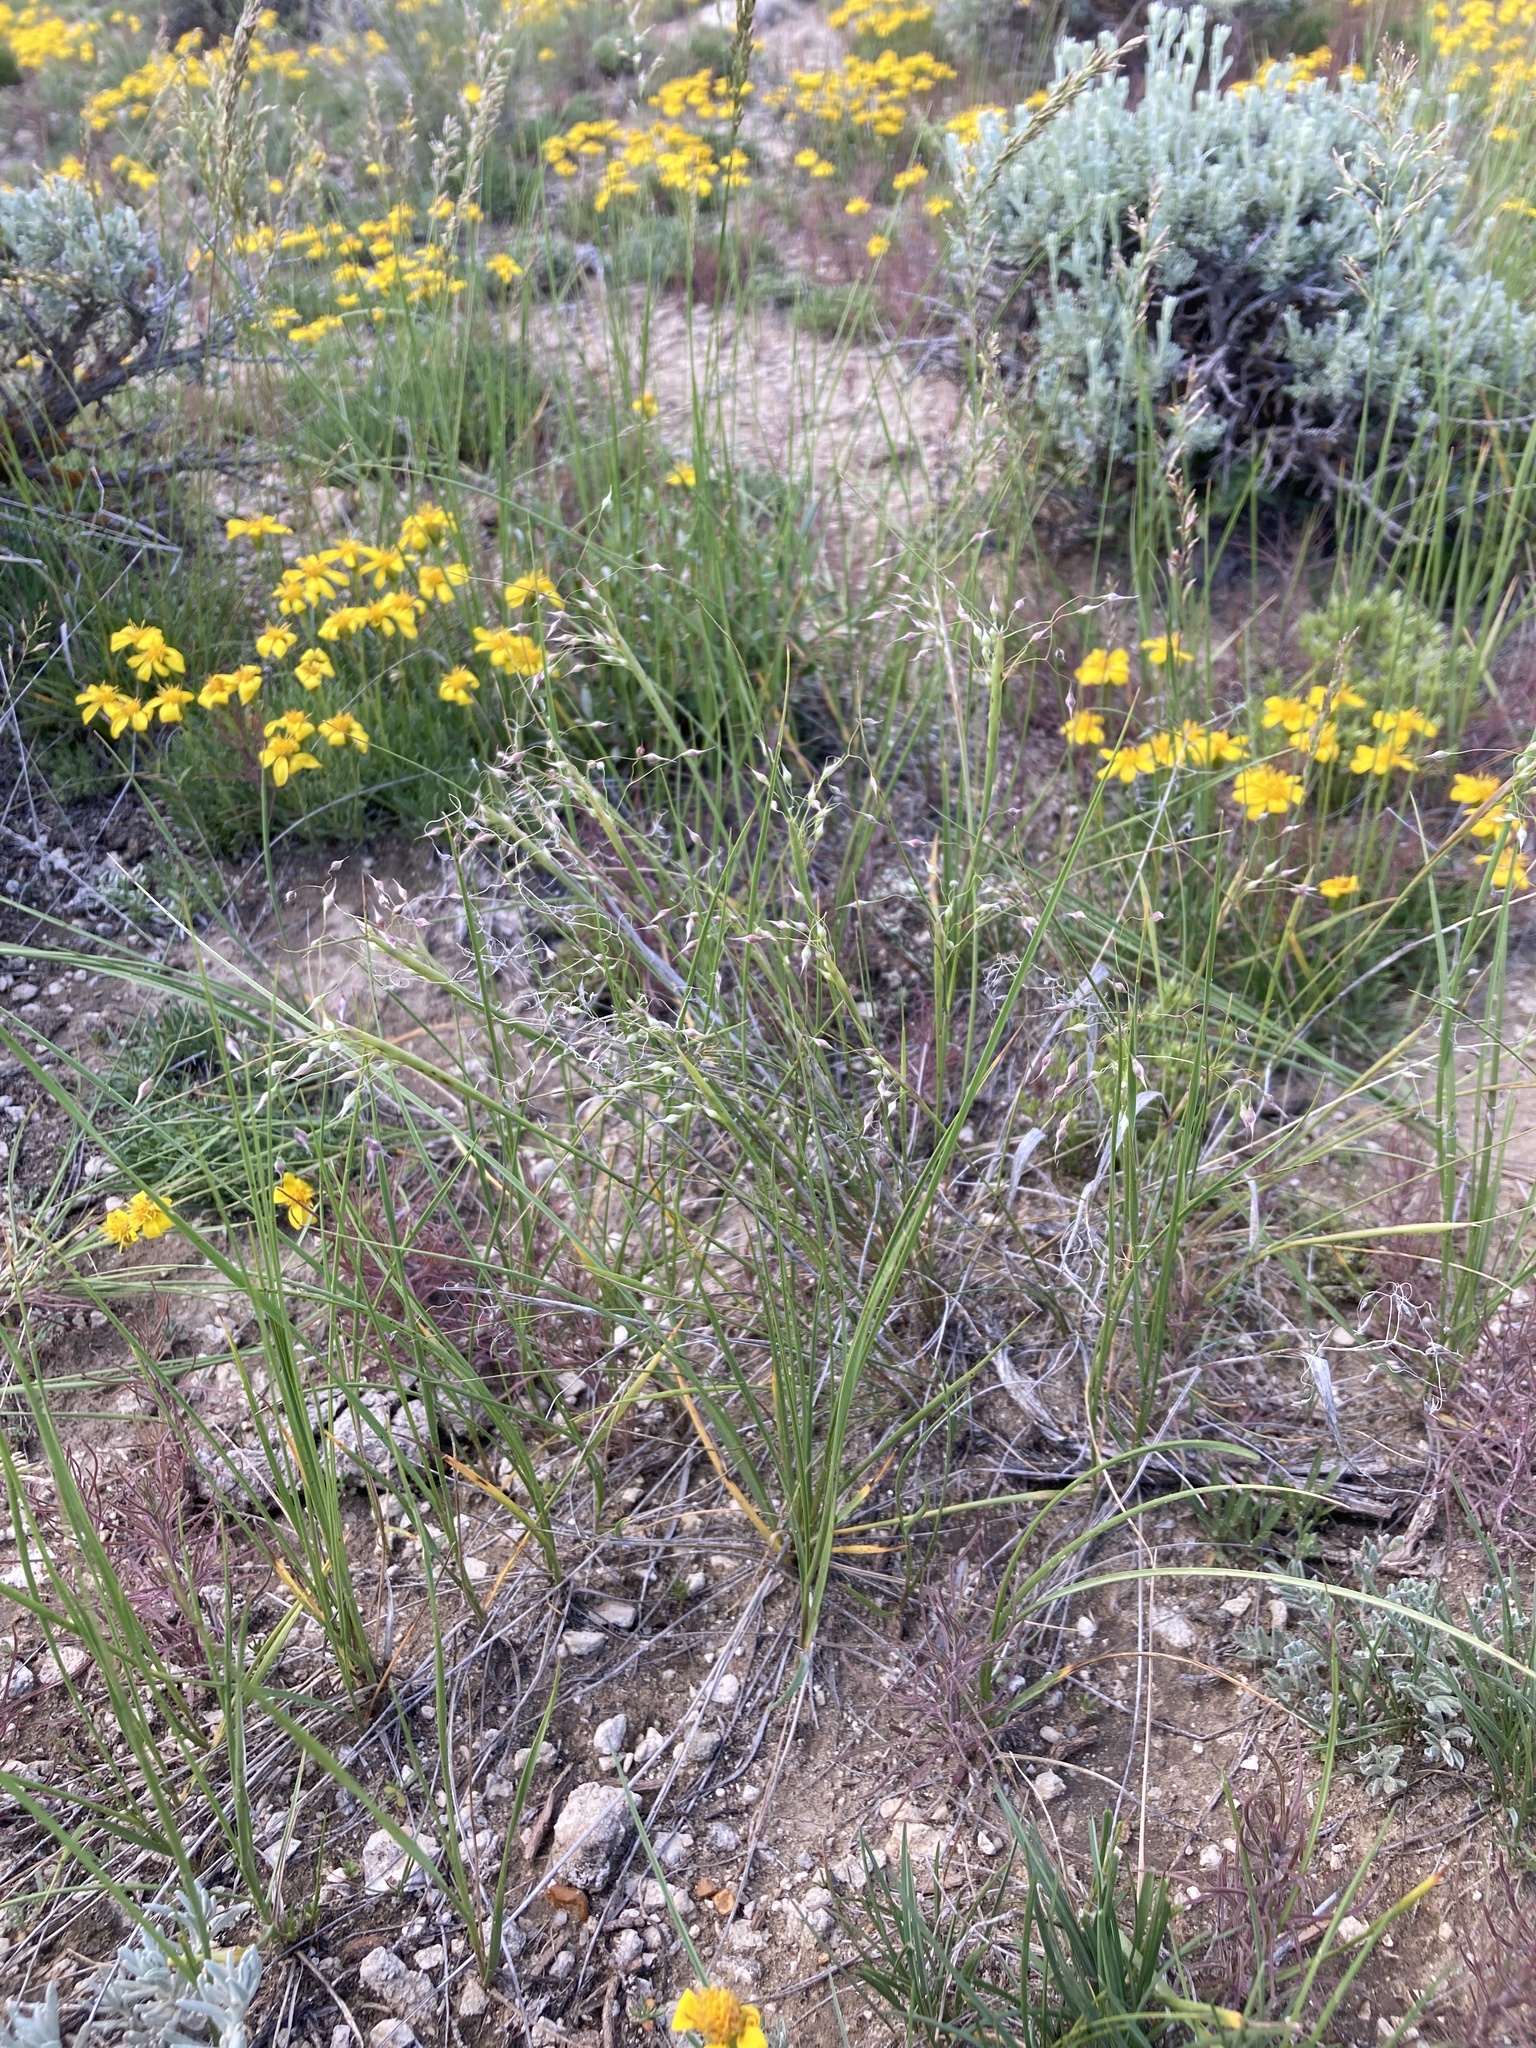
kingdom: Plantae
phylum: Tracheophyta
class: Liliopsida
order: Poales
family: Poaceae
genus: Eriocoma
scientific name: Eriocoma hymenoides
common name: Indian mountain ricegrass
